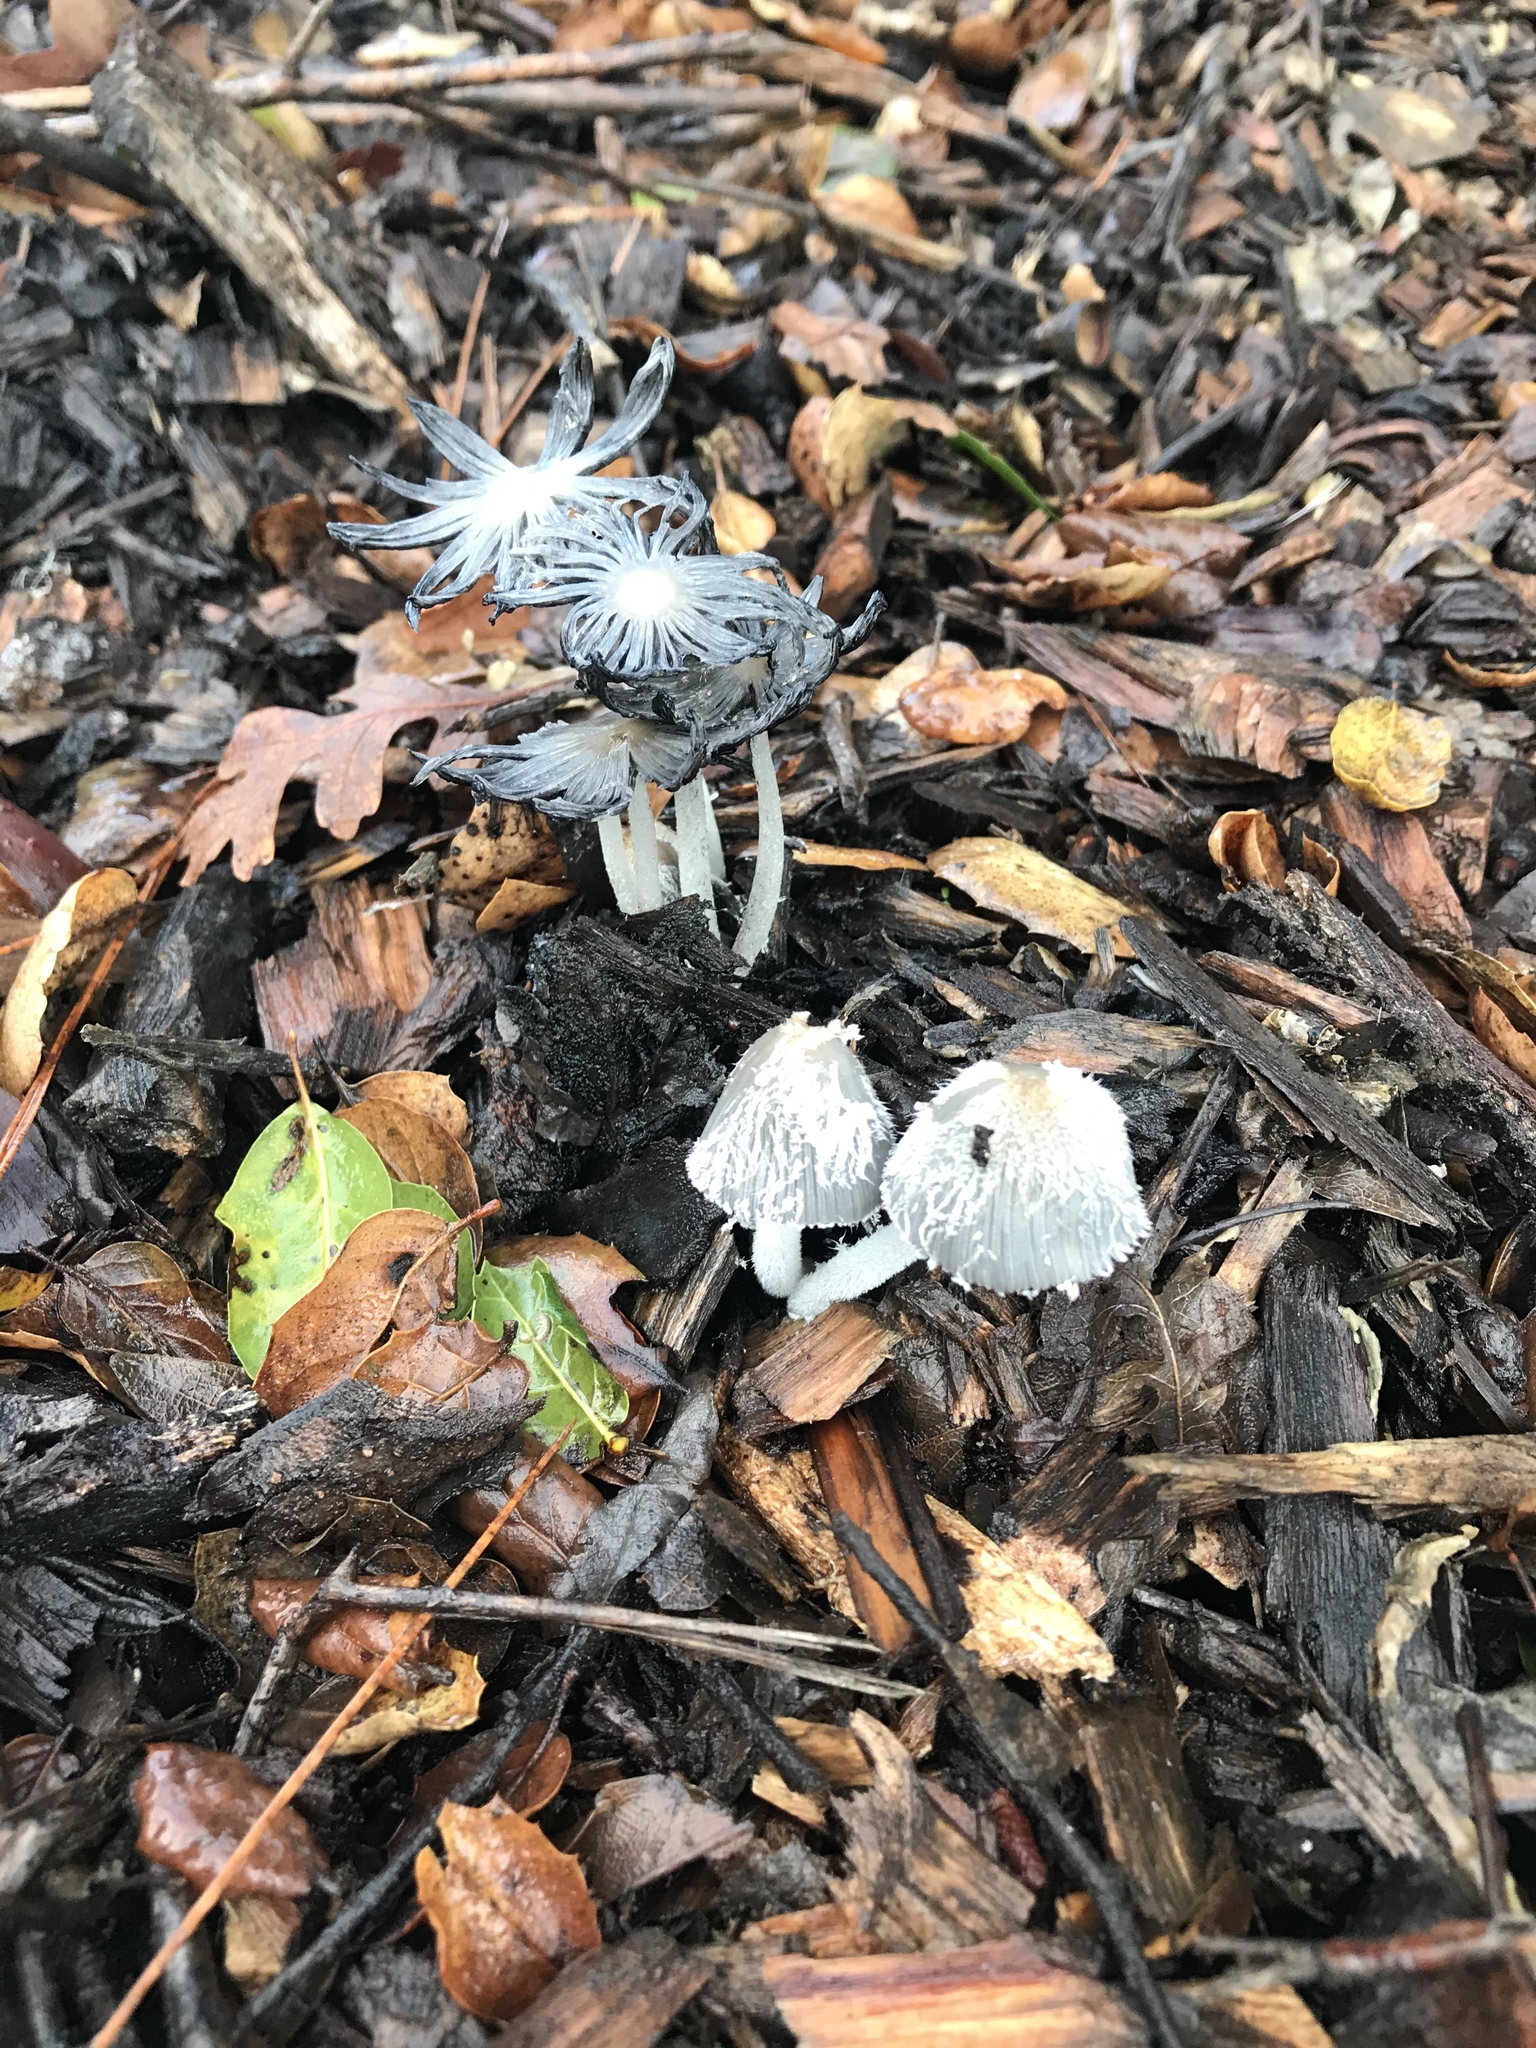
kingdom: Fungi
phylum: Basidiomycota
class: Agaricomycetes
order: Agaricales
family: Psathyrellaceae
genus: Coprinopsis
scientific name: Coprinopsis lagopus
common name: Hare'sfoot inkcap
